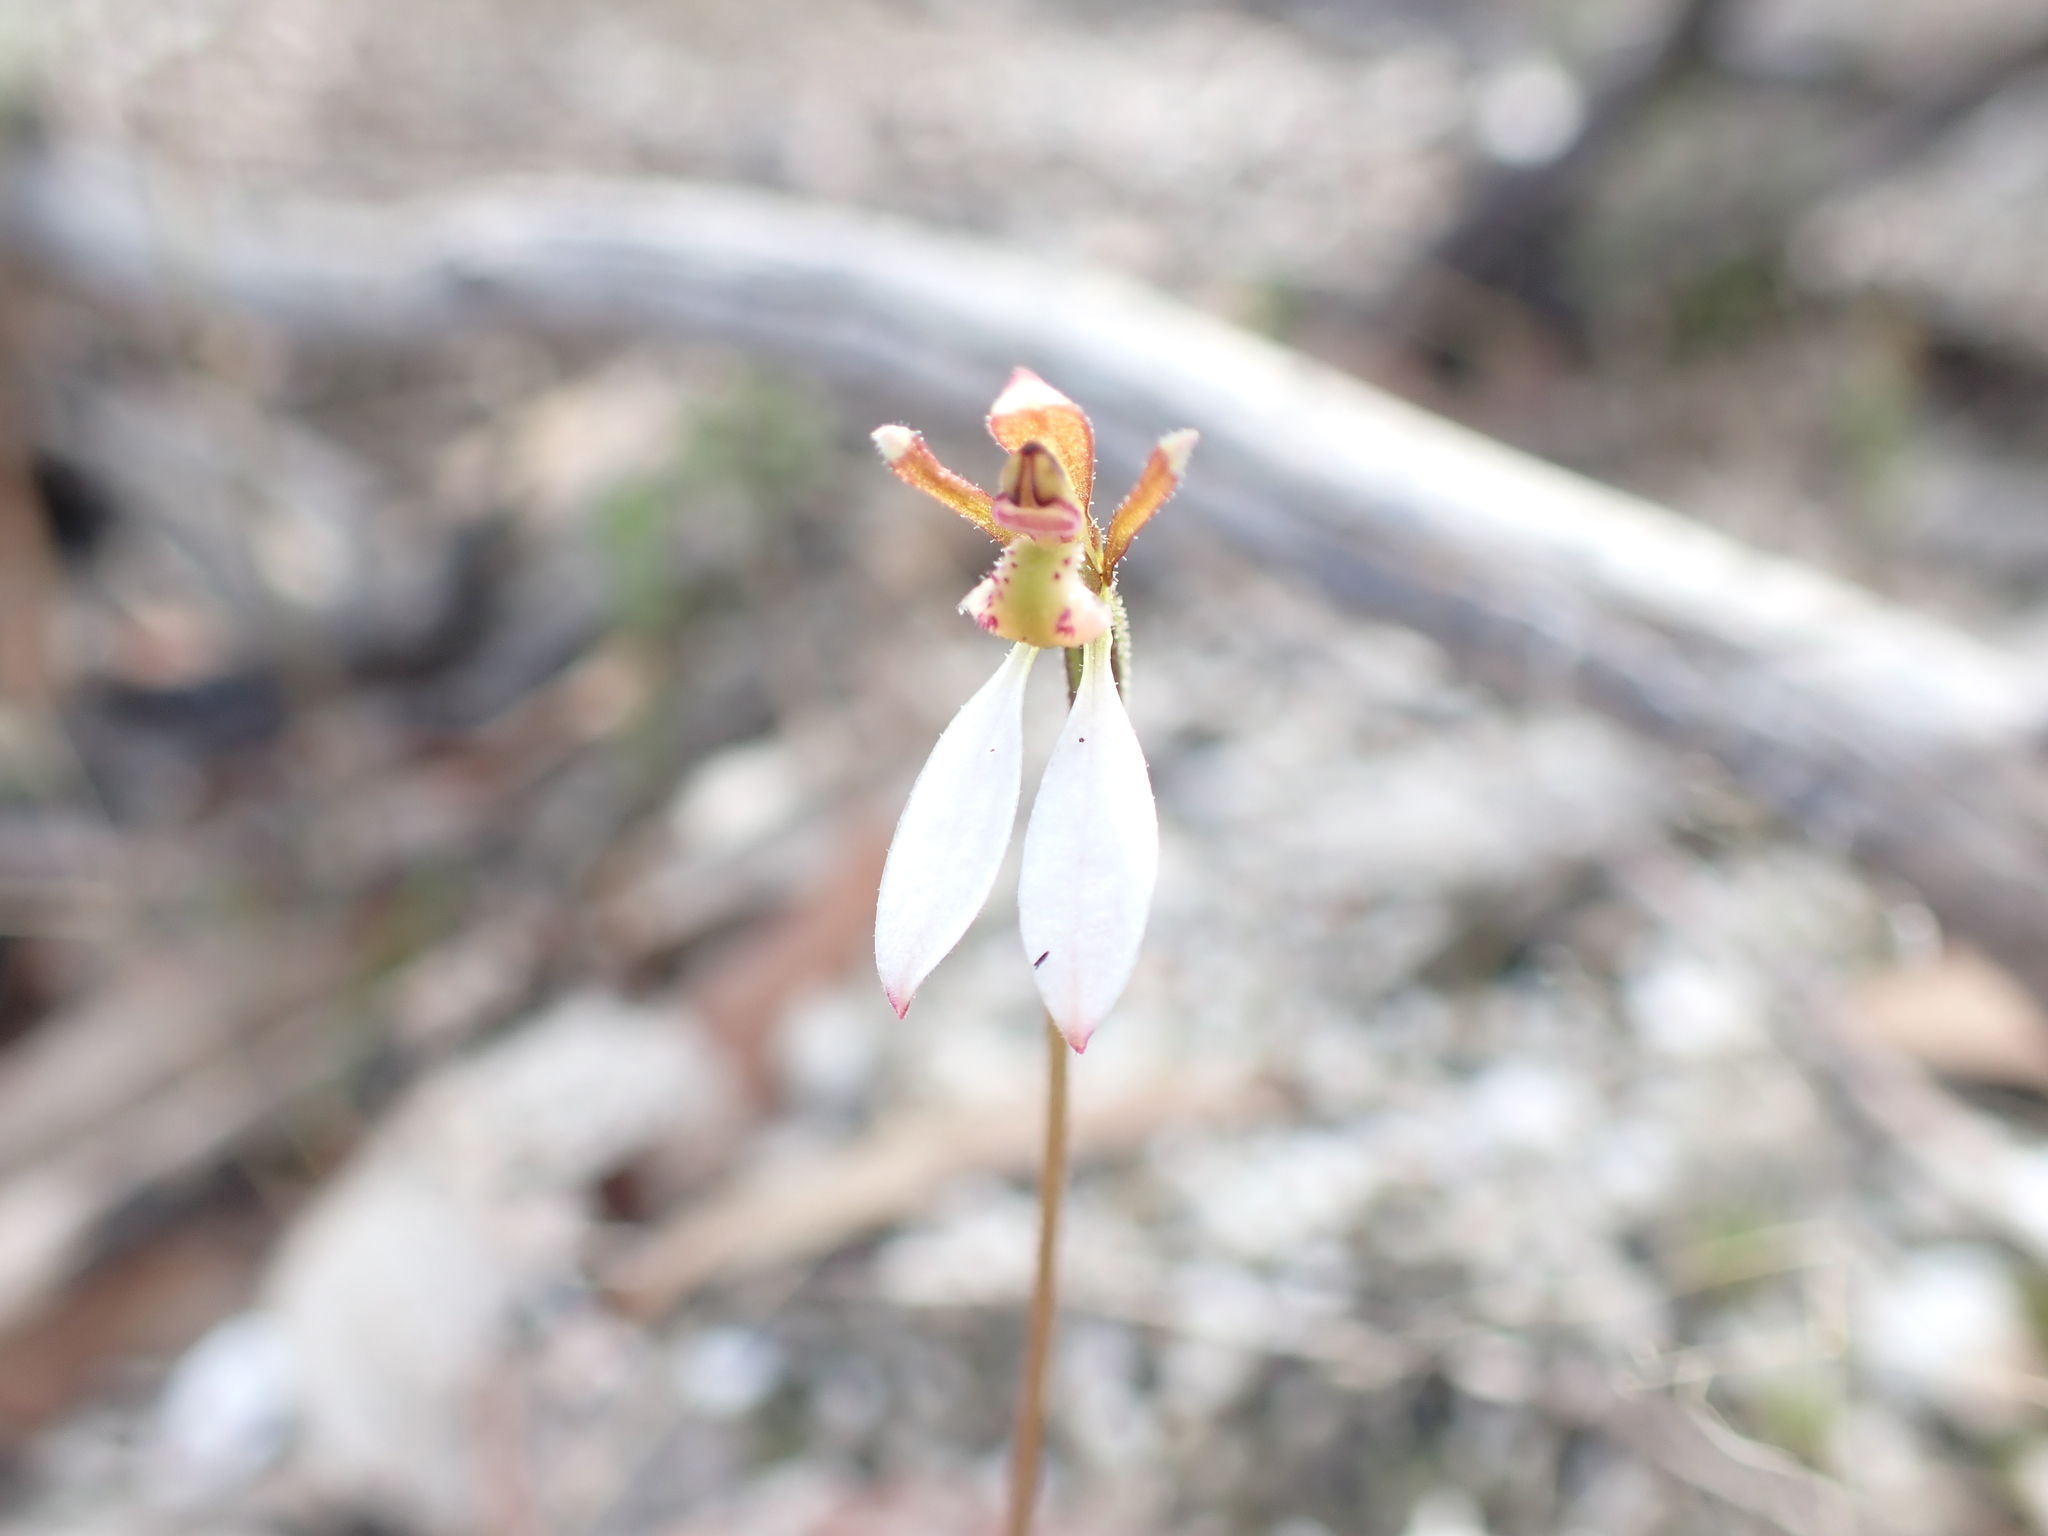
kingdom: Plantae
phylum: Tracheophyta
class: Liliopsida
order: Asparagales
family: Orchidaceae
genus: Eriochilus
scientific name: Eriochilus cucullatus
